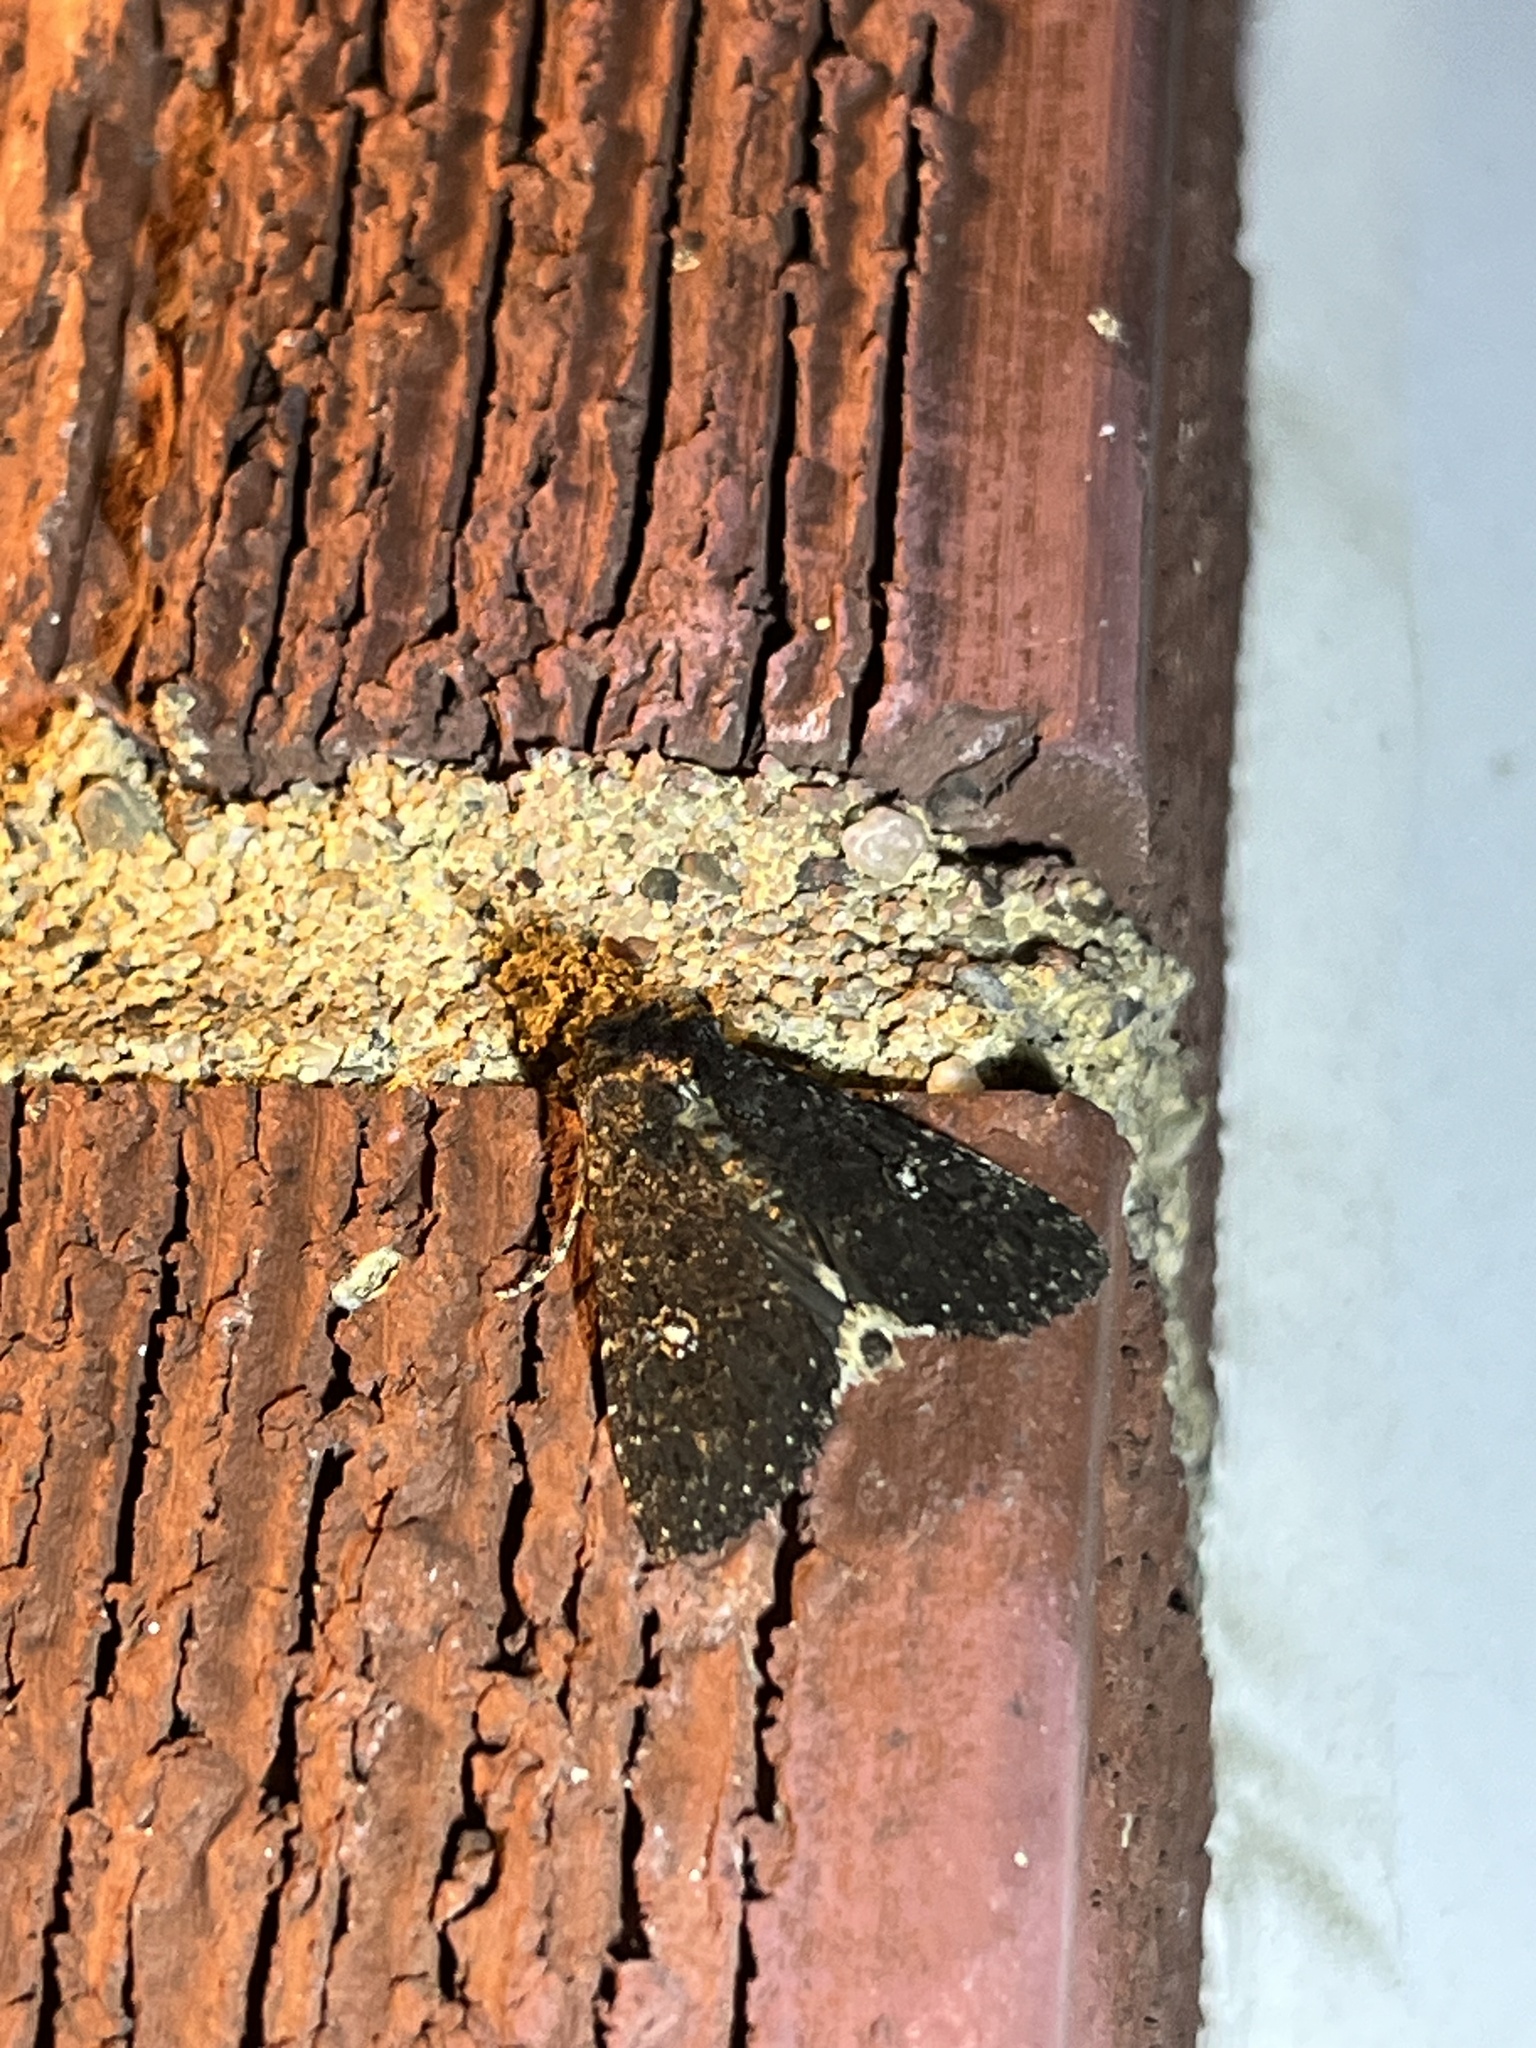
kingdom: Animalia
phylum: Arthropoda
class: Insecta
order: Lepidoptera
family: Noctuidae
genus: Condica
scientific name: Condica vecors
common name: Dusky groundling
